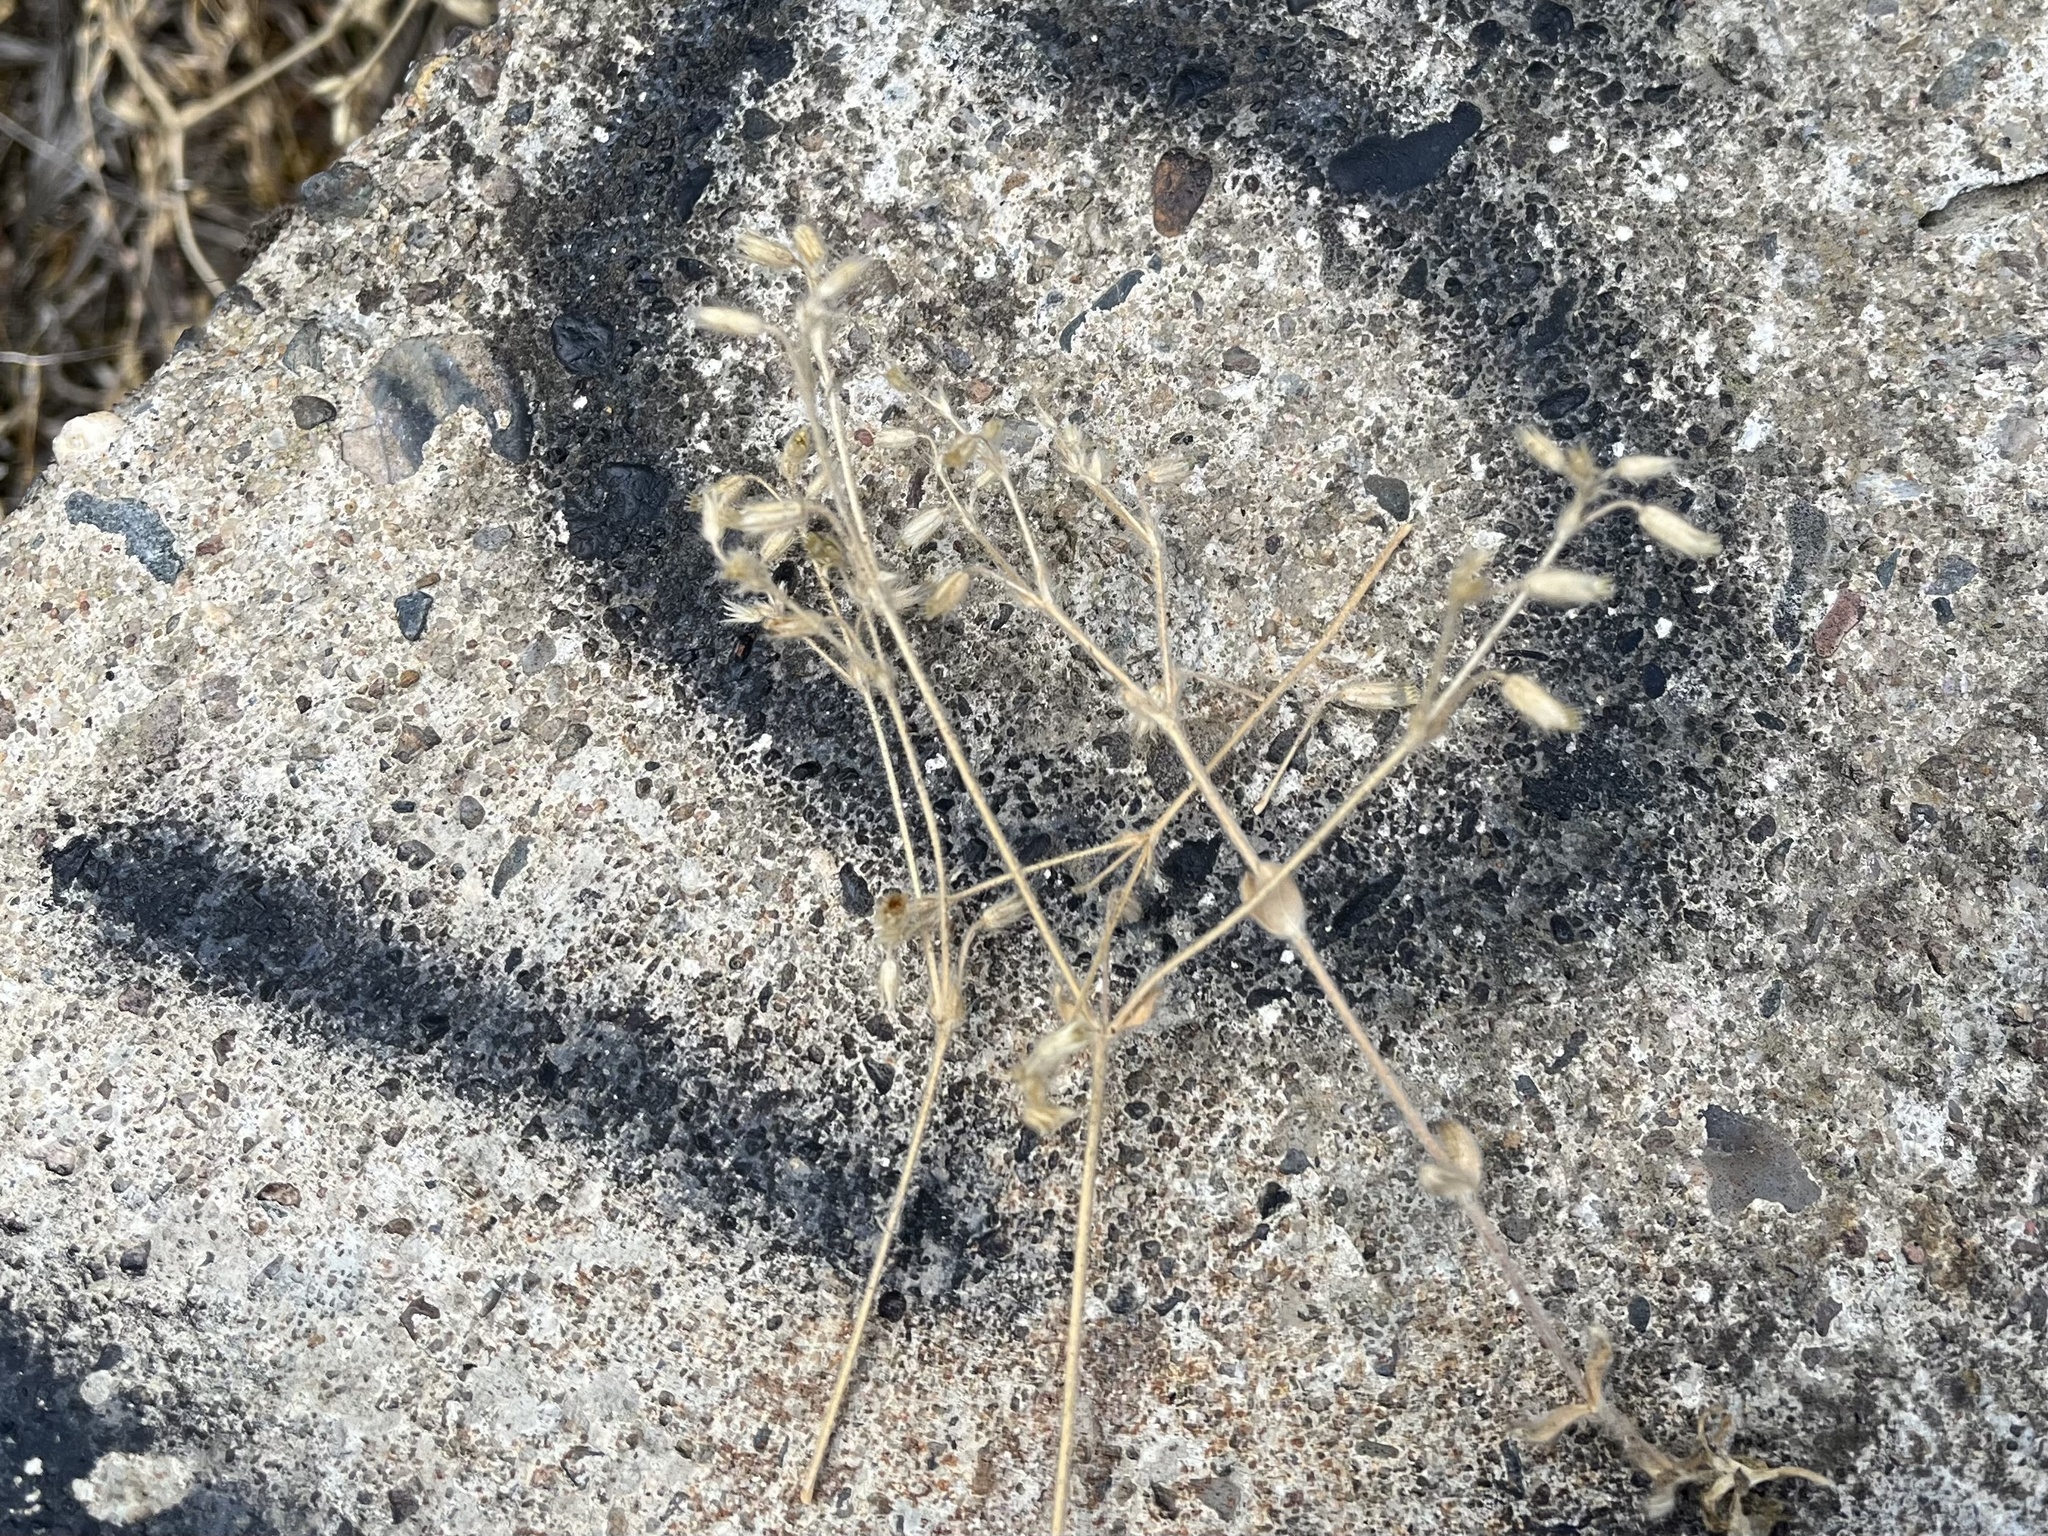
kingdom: Plantae
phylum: Tracheophyta
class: Magnoliopsida
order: Caryophyllales
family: Caryophyllaceae
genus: Cerastium
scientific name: Cerastium brachypetalum
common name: Grey mouse-ear
